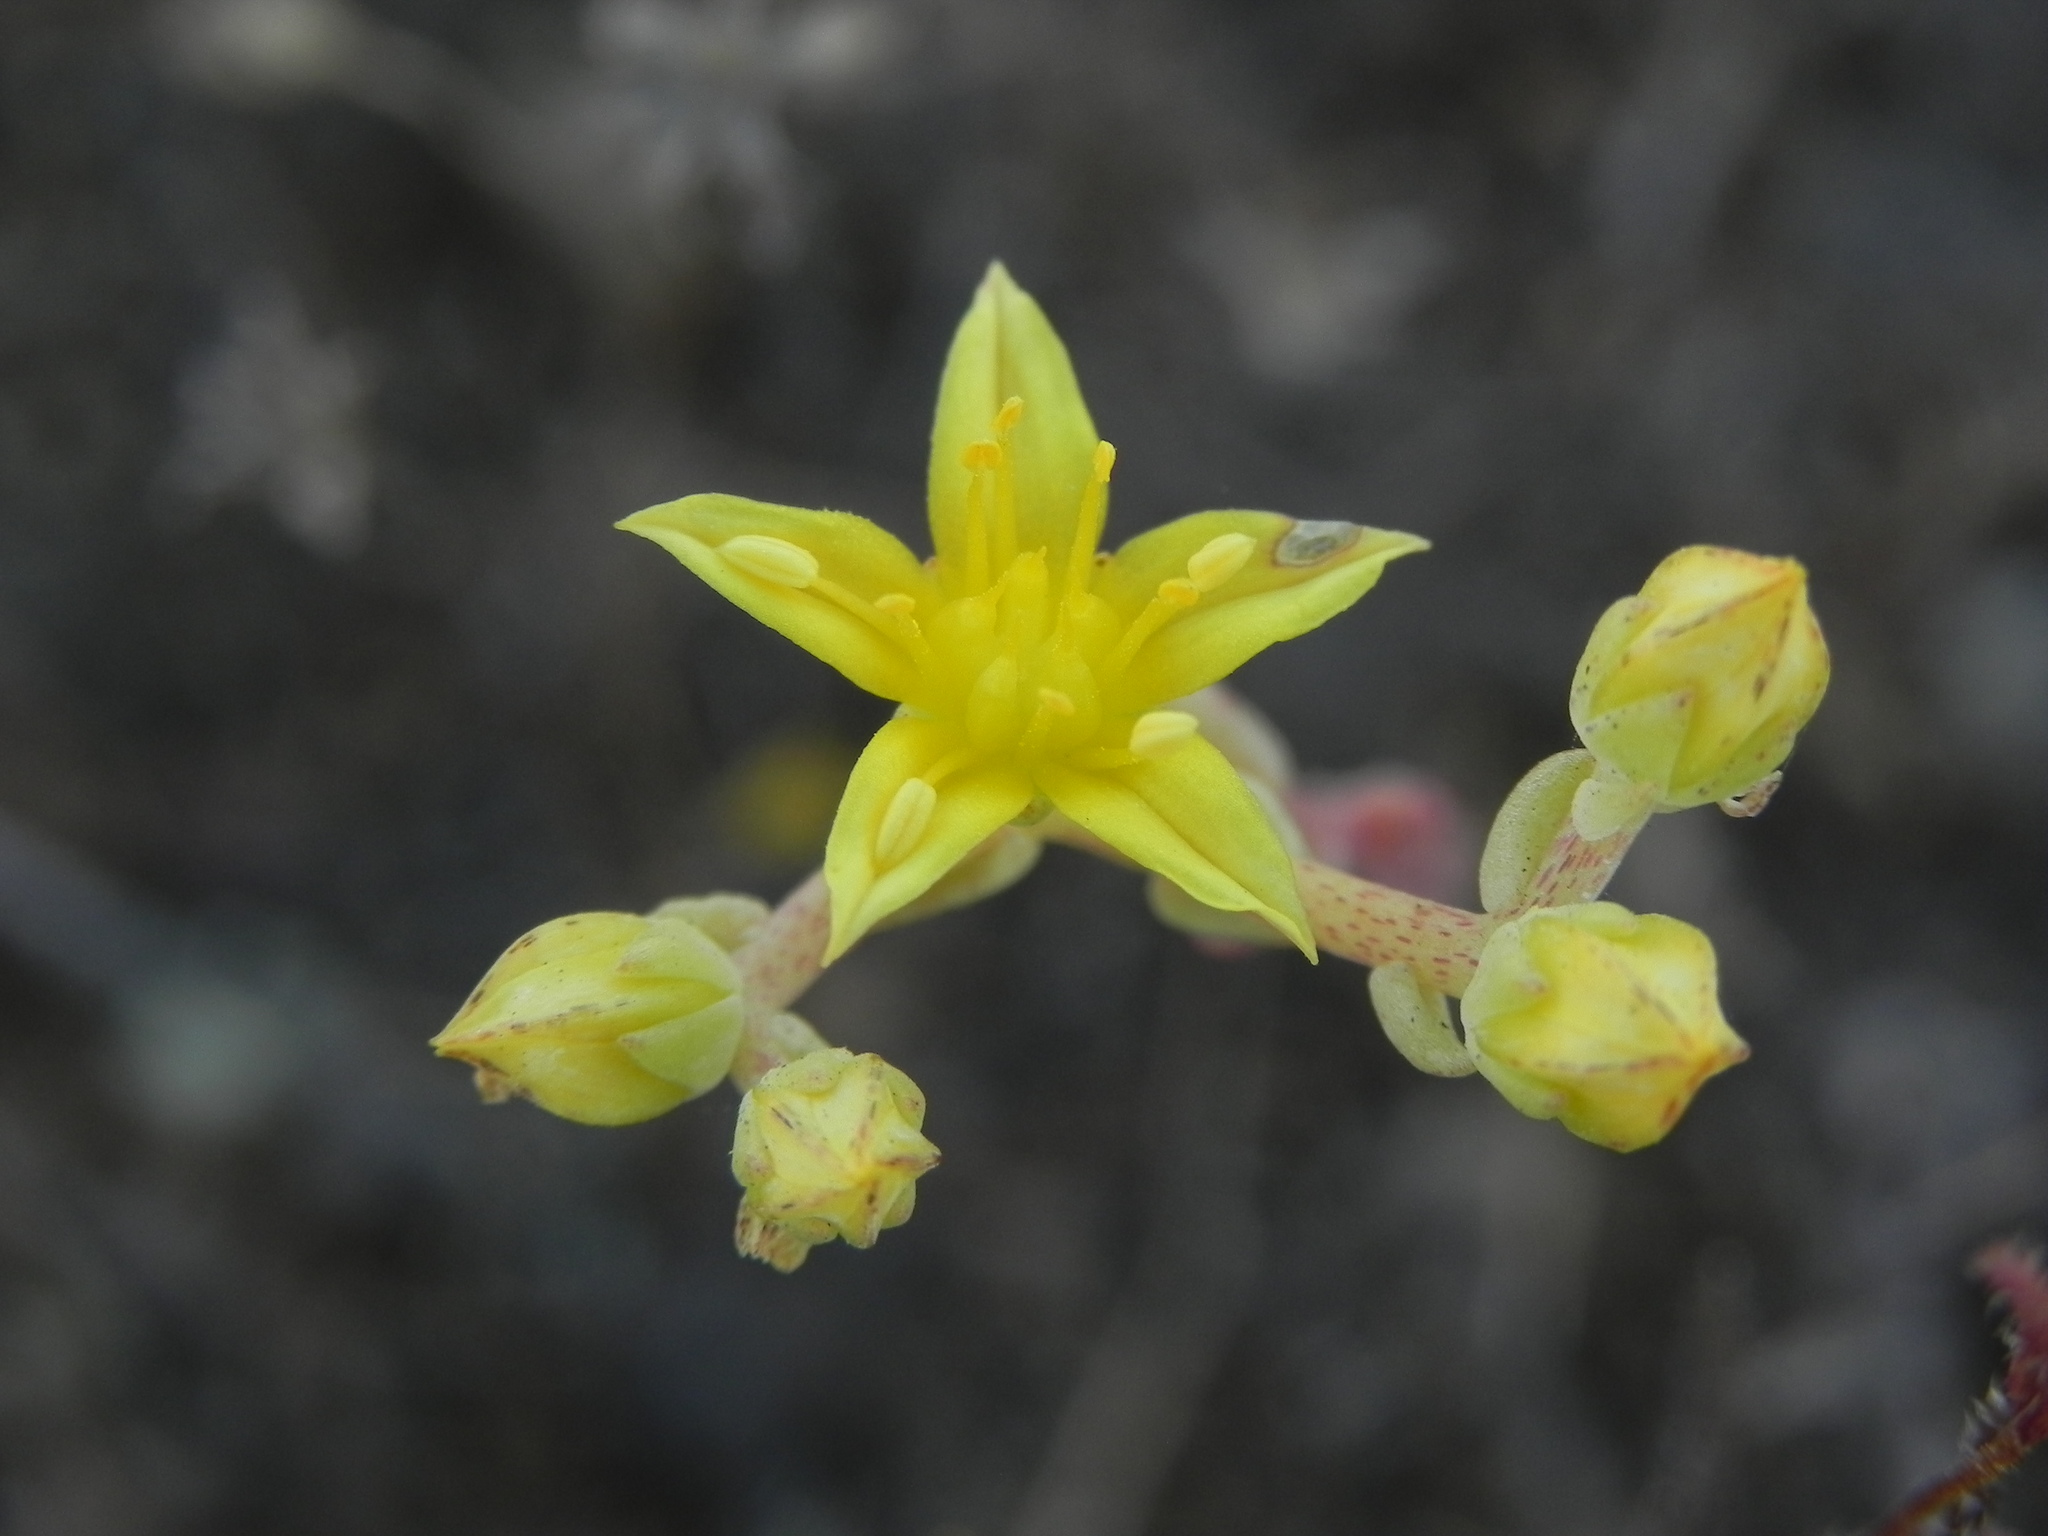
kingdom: Plantae
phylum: Tracheophyta
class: Magnoliopsida
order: Saxifragales
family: Crassulaceae
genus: Dudleya
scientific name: Dudleya variegata
